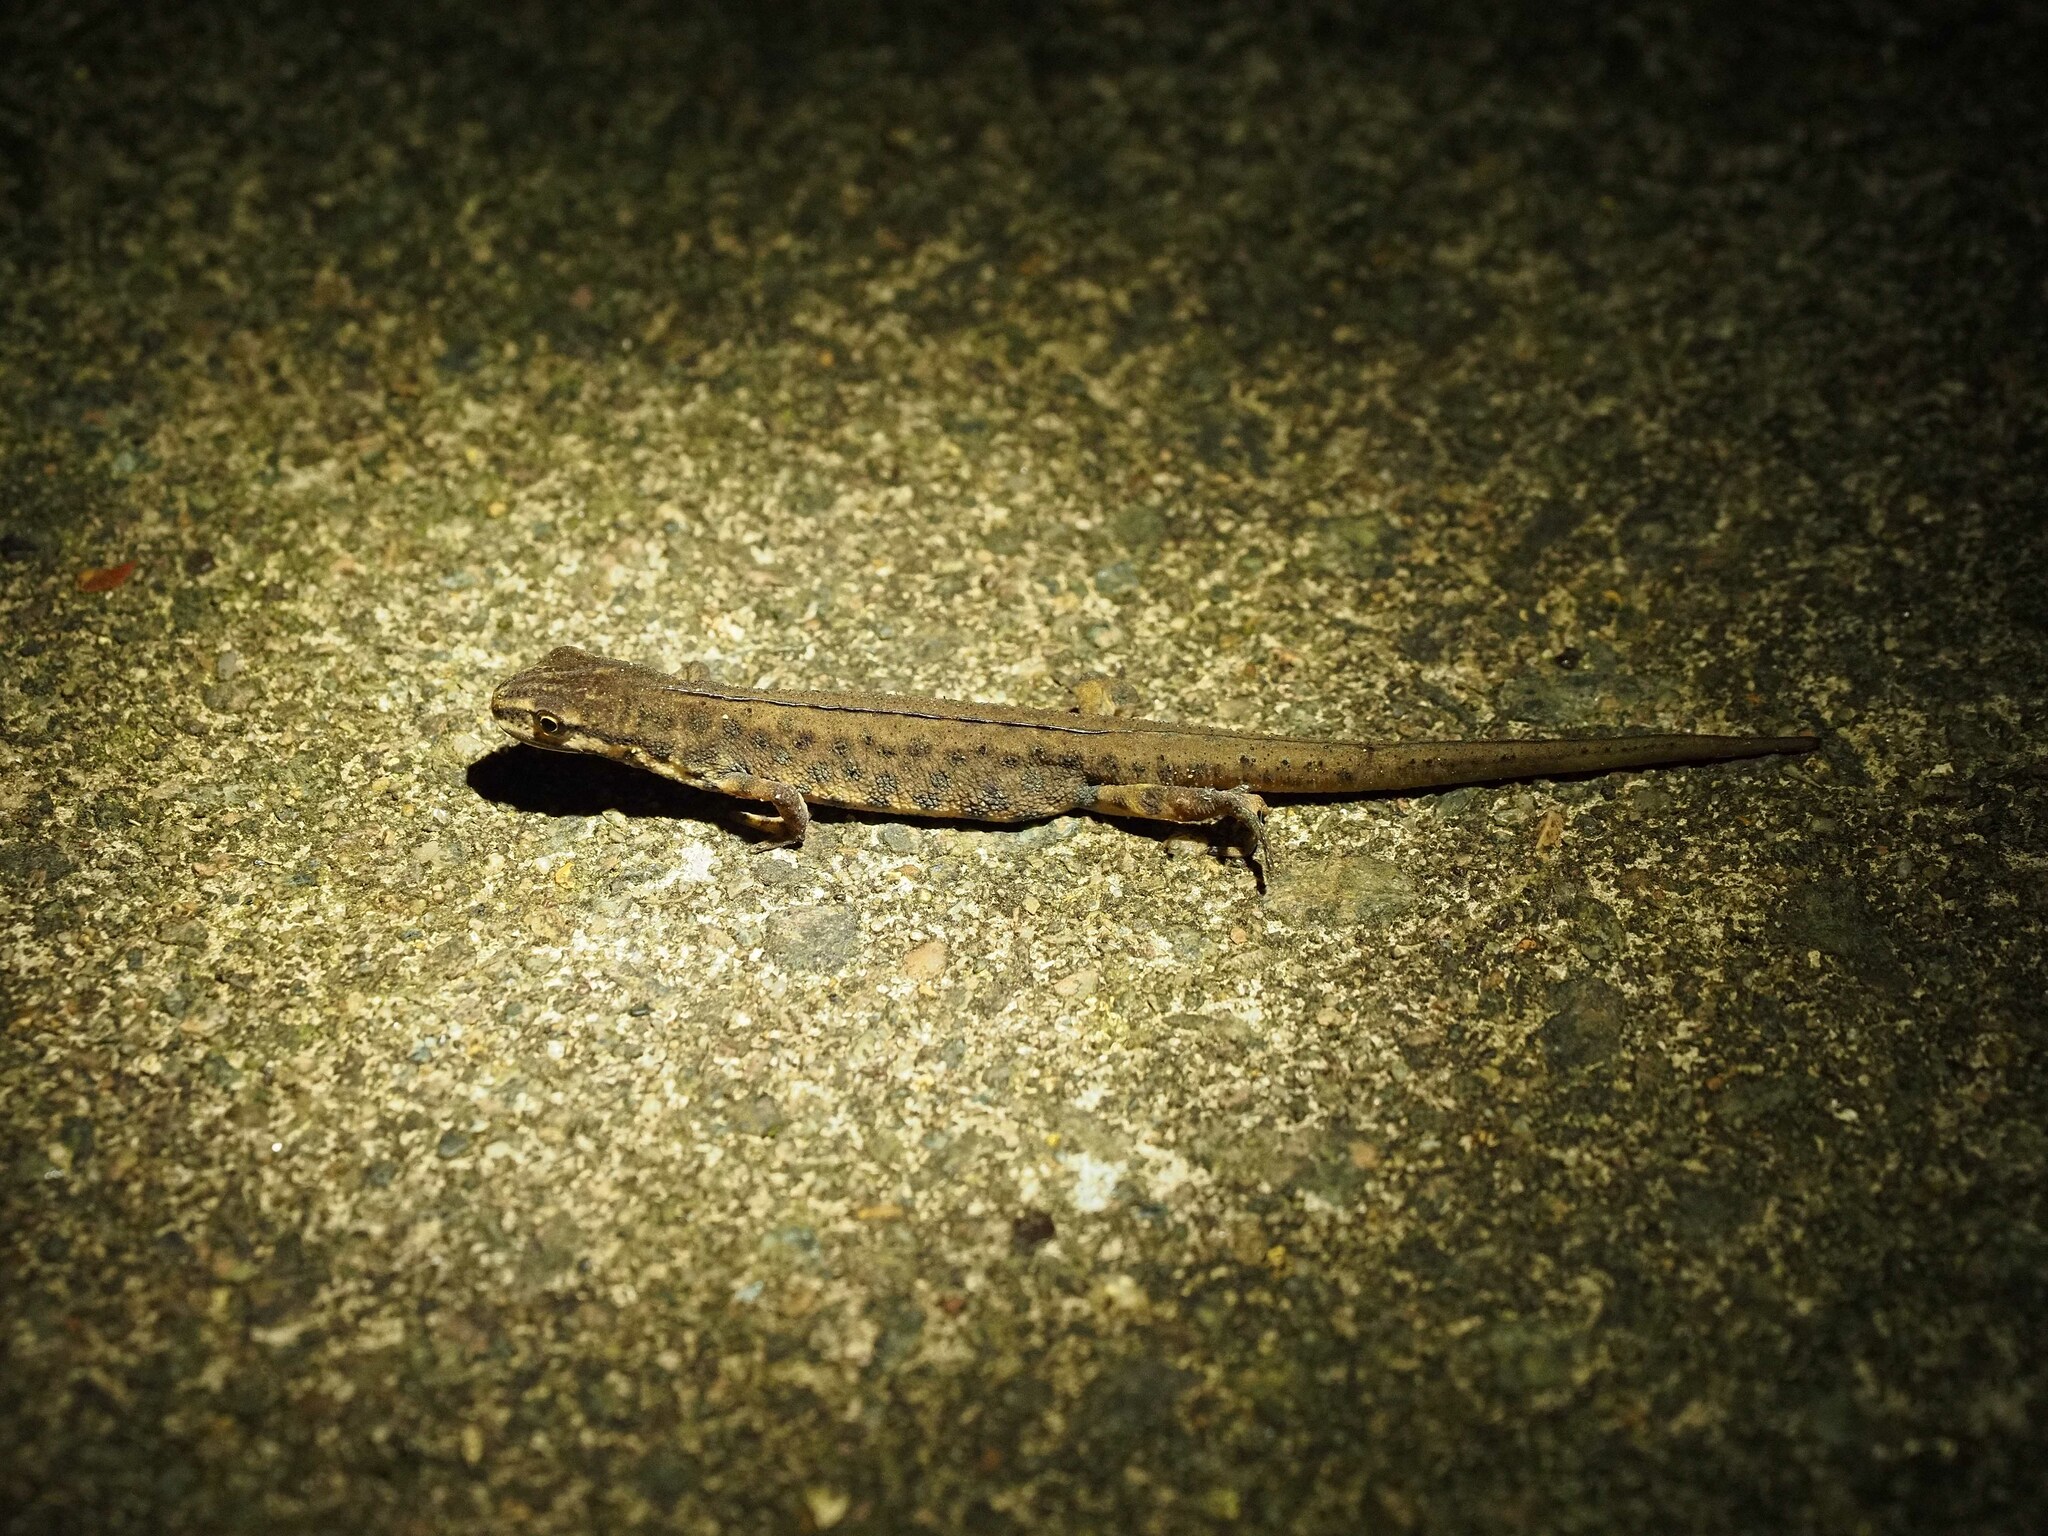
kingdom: Animalia
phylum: Chordata
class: Amphibia
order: Caudata
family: Salamandridae
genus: Lissotriton
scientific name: Lissotriton vulgaris
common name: Smooth newt
